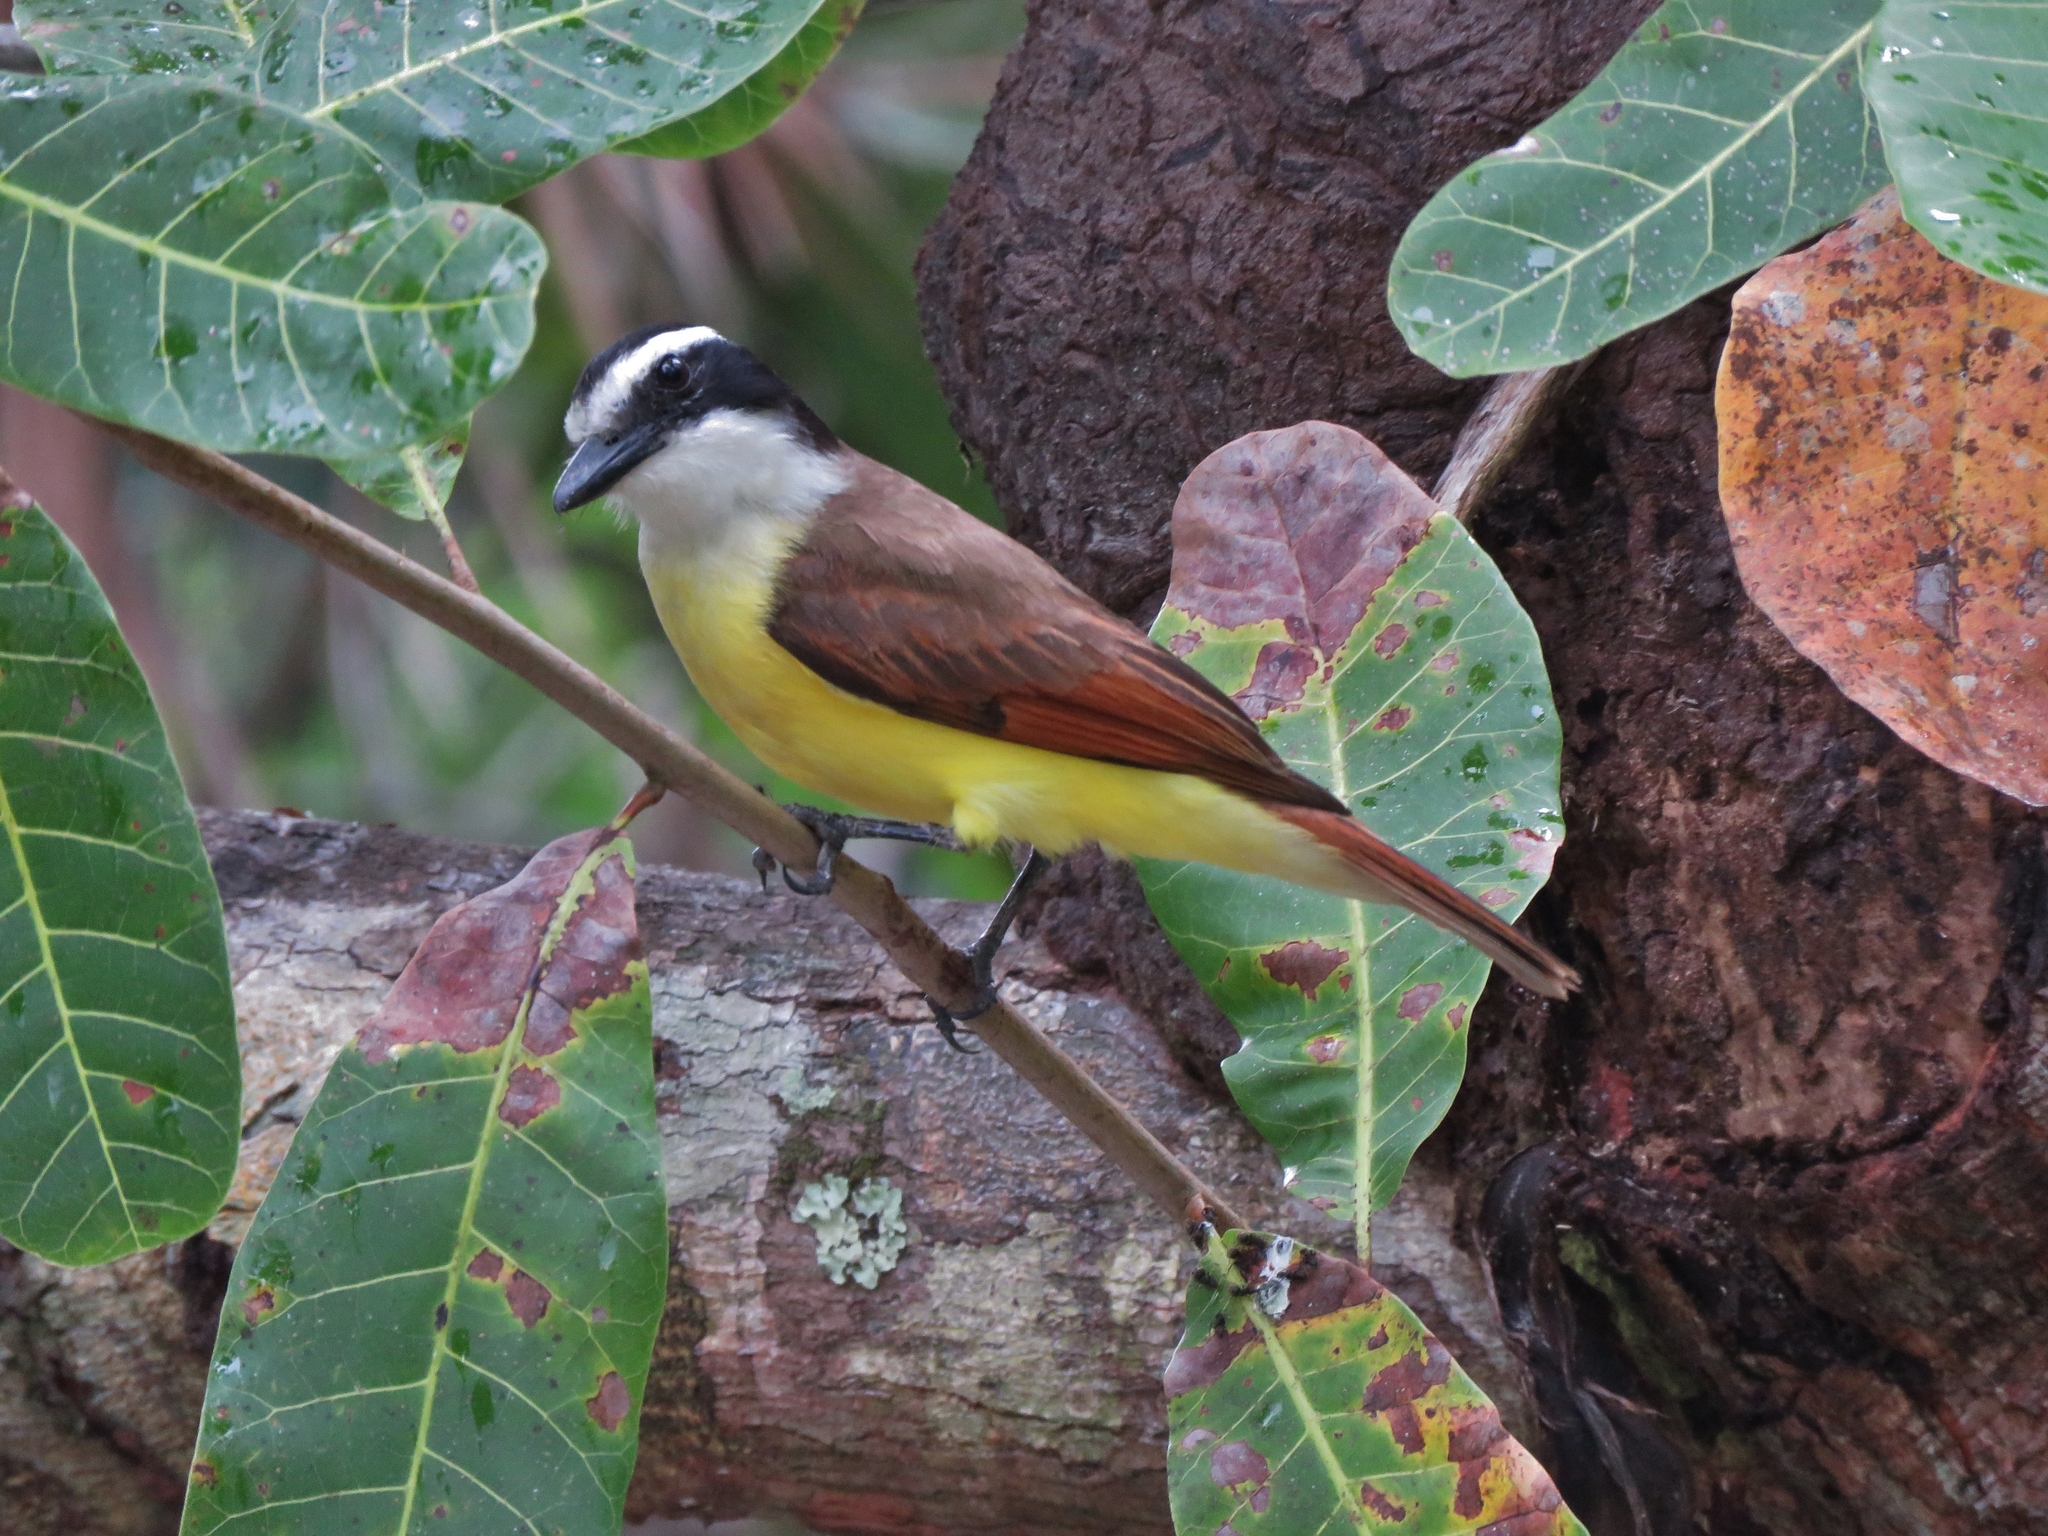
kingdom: Animalia
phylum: Chordata
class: Aves
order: Passeriformes
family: Tyrannidae
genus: Pitangus
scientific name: Pitangus sulphuratus
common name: Great kiskadee
